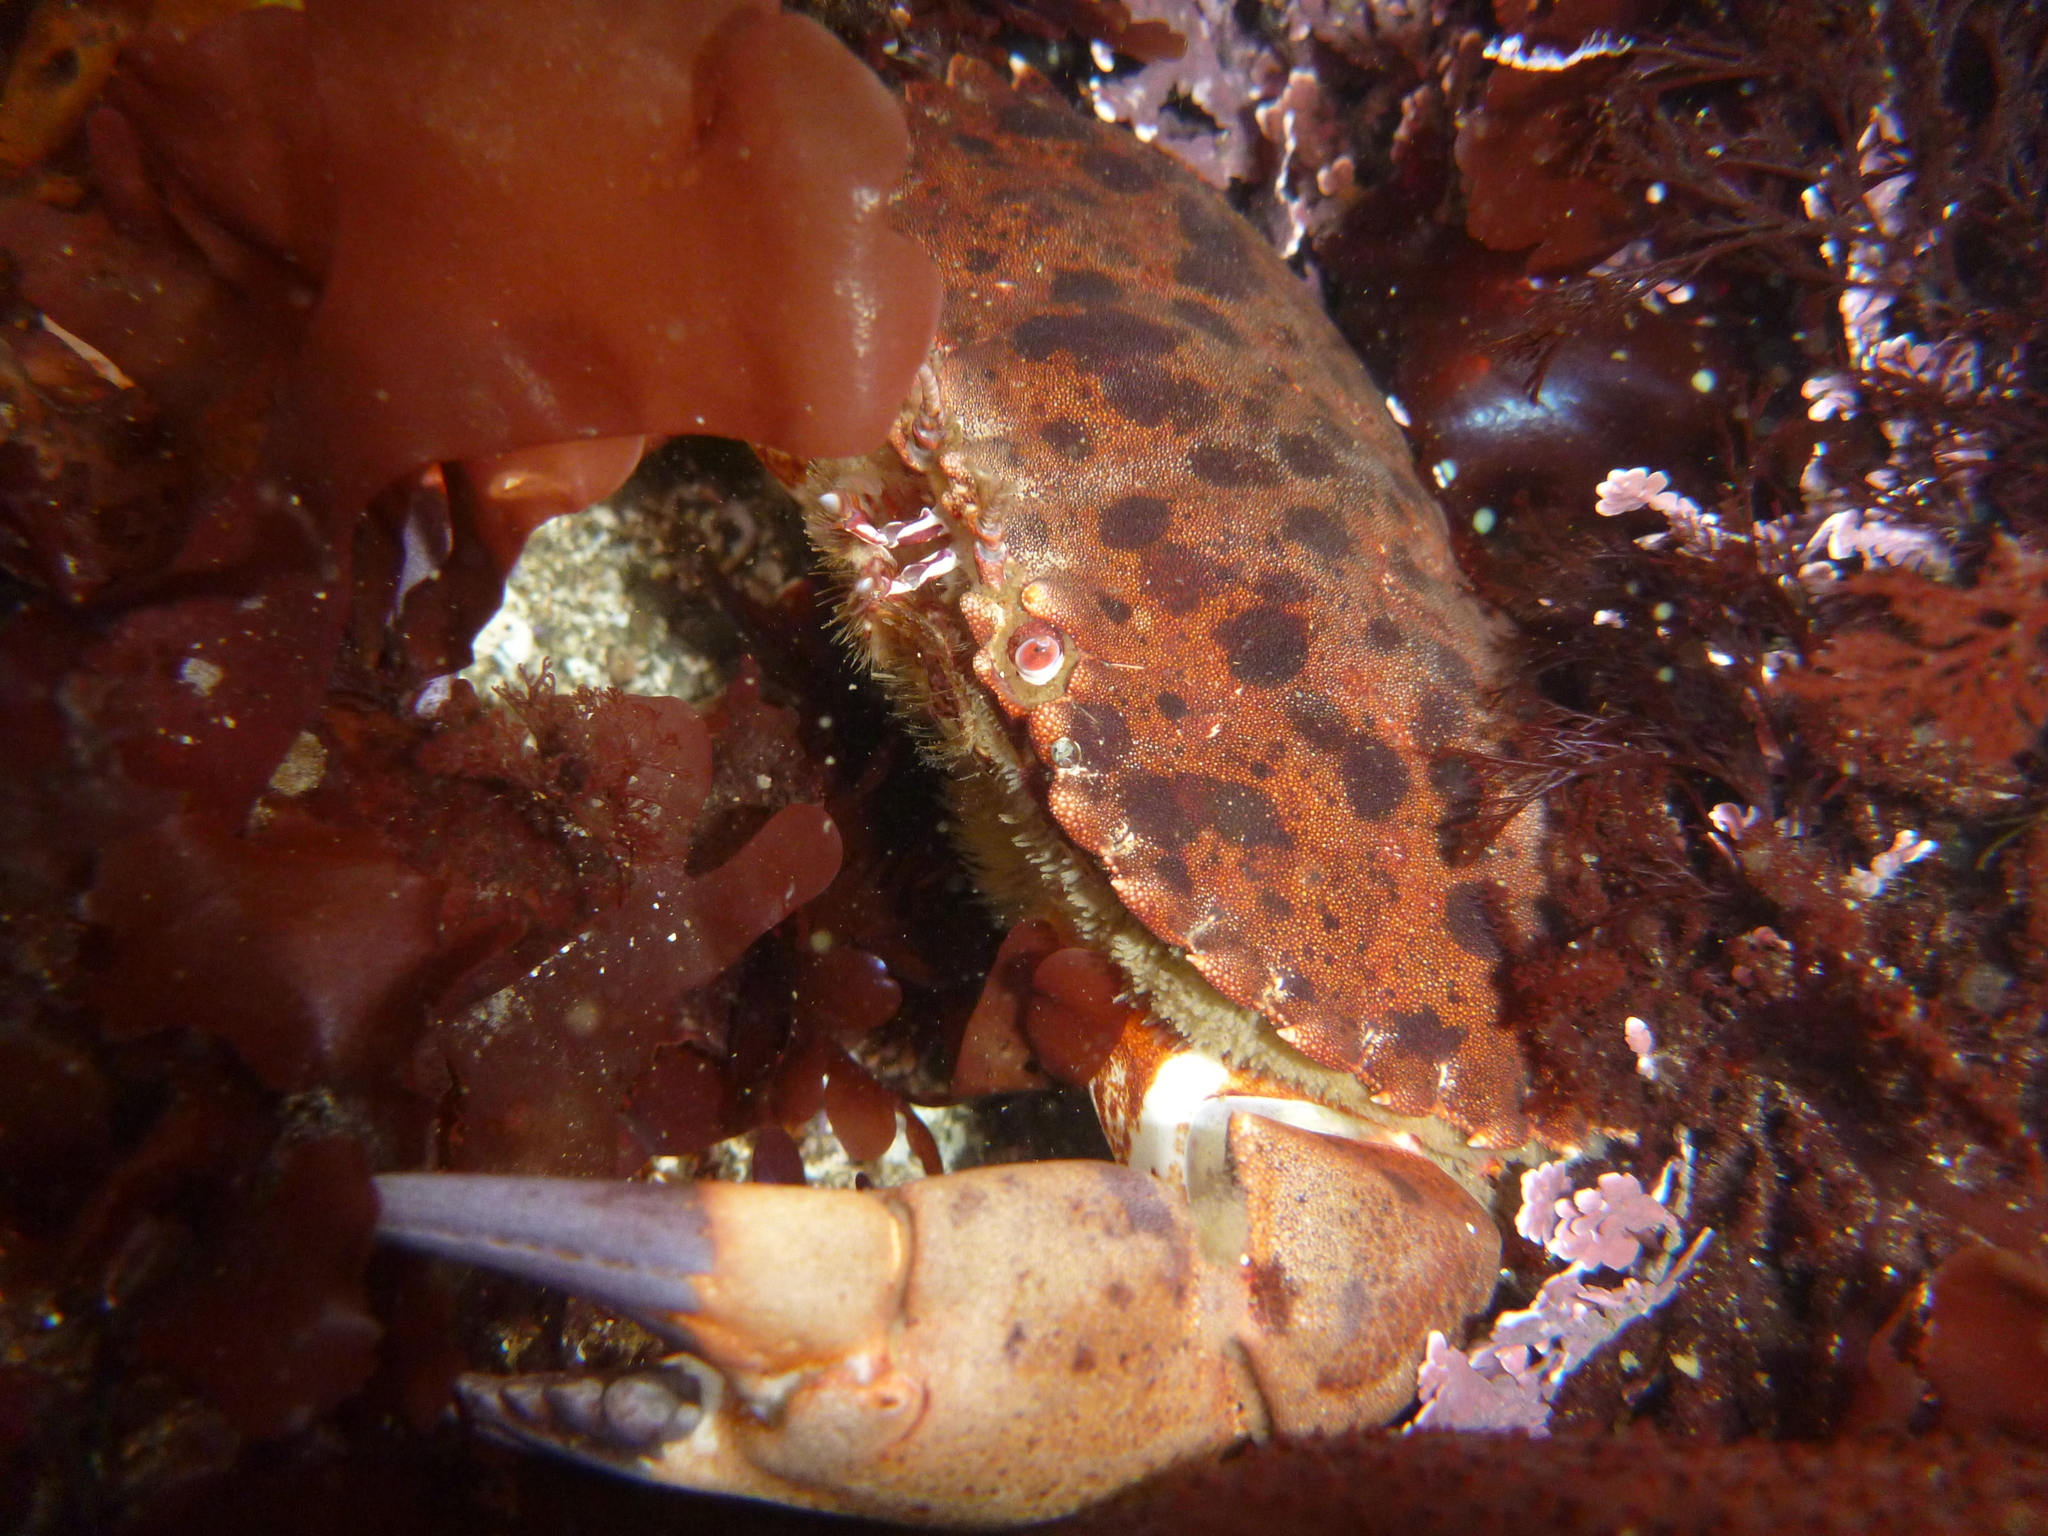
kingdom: Animalia
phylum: Arthropoda
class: Malacostraca
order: Decapoda
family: Cancridae
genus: Romaleon
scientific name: Romaleon antennarium
